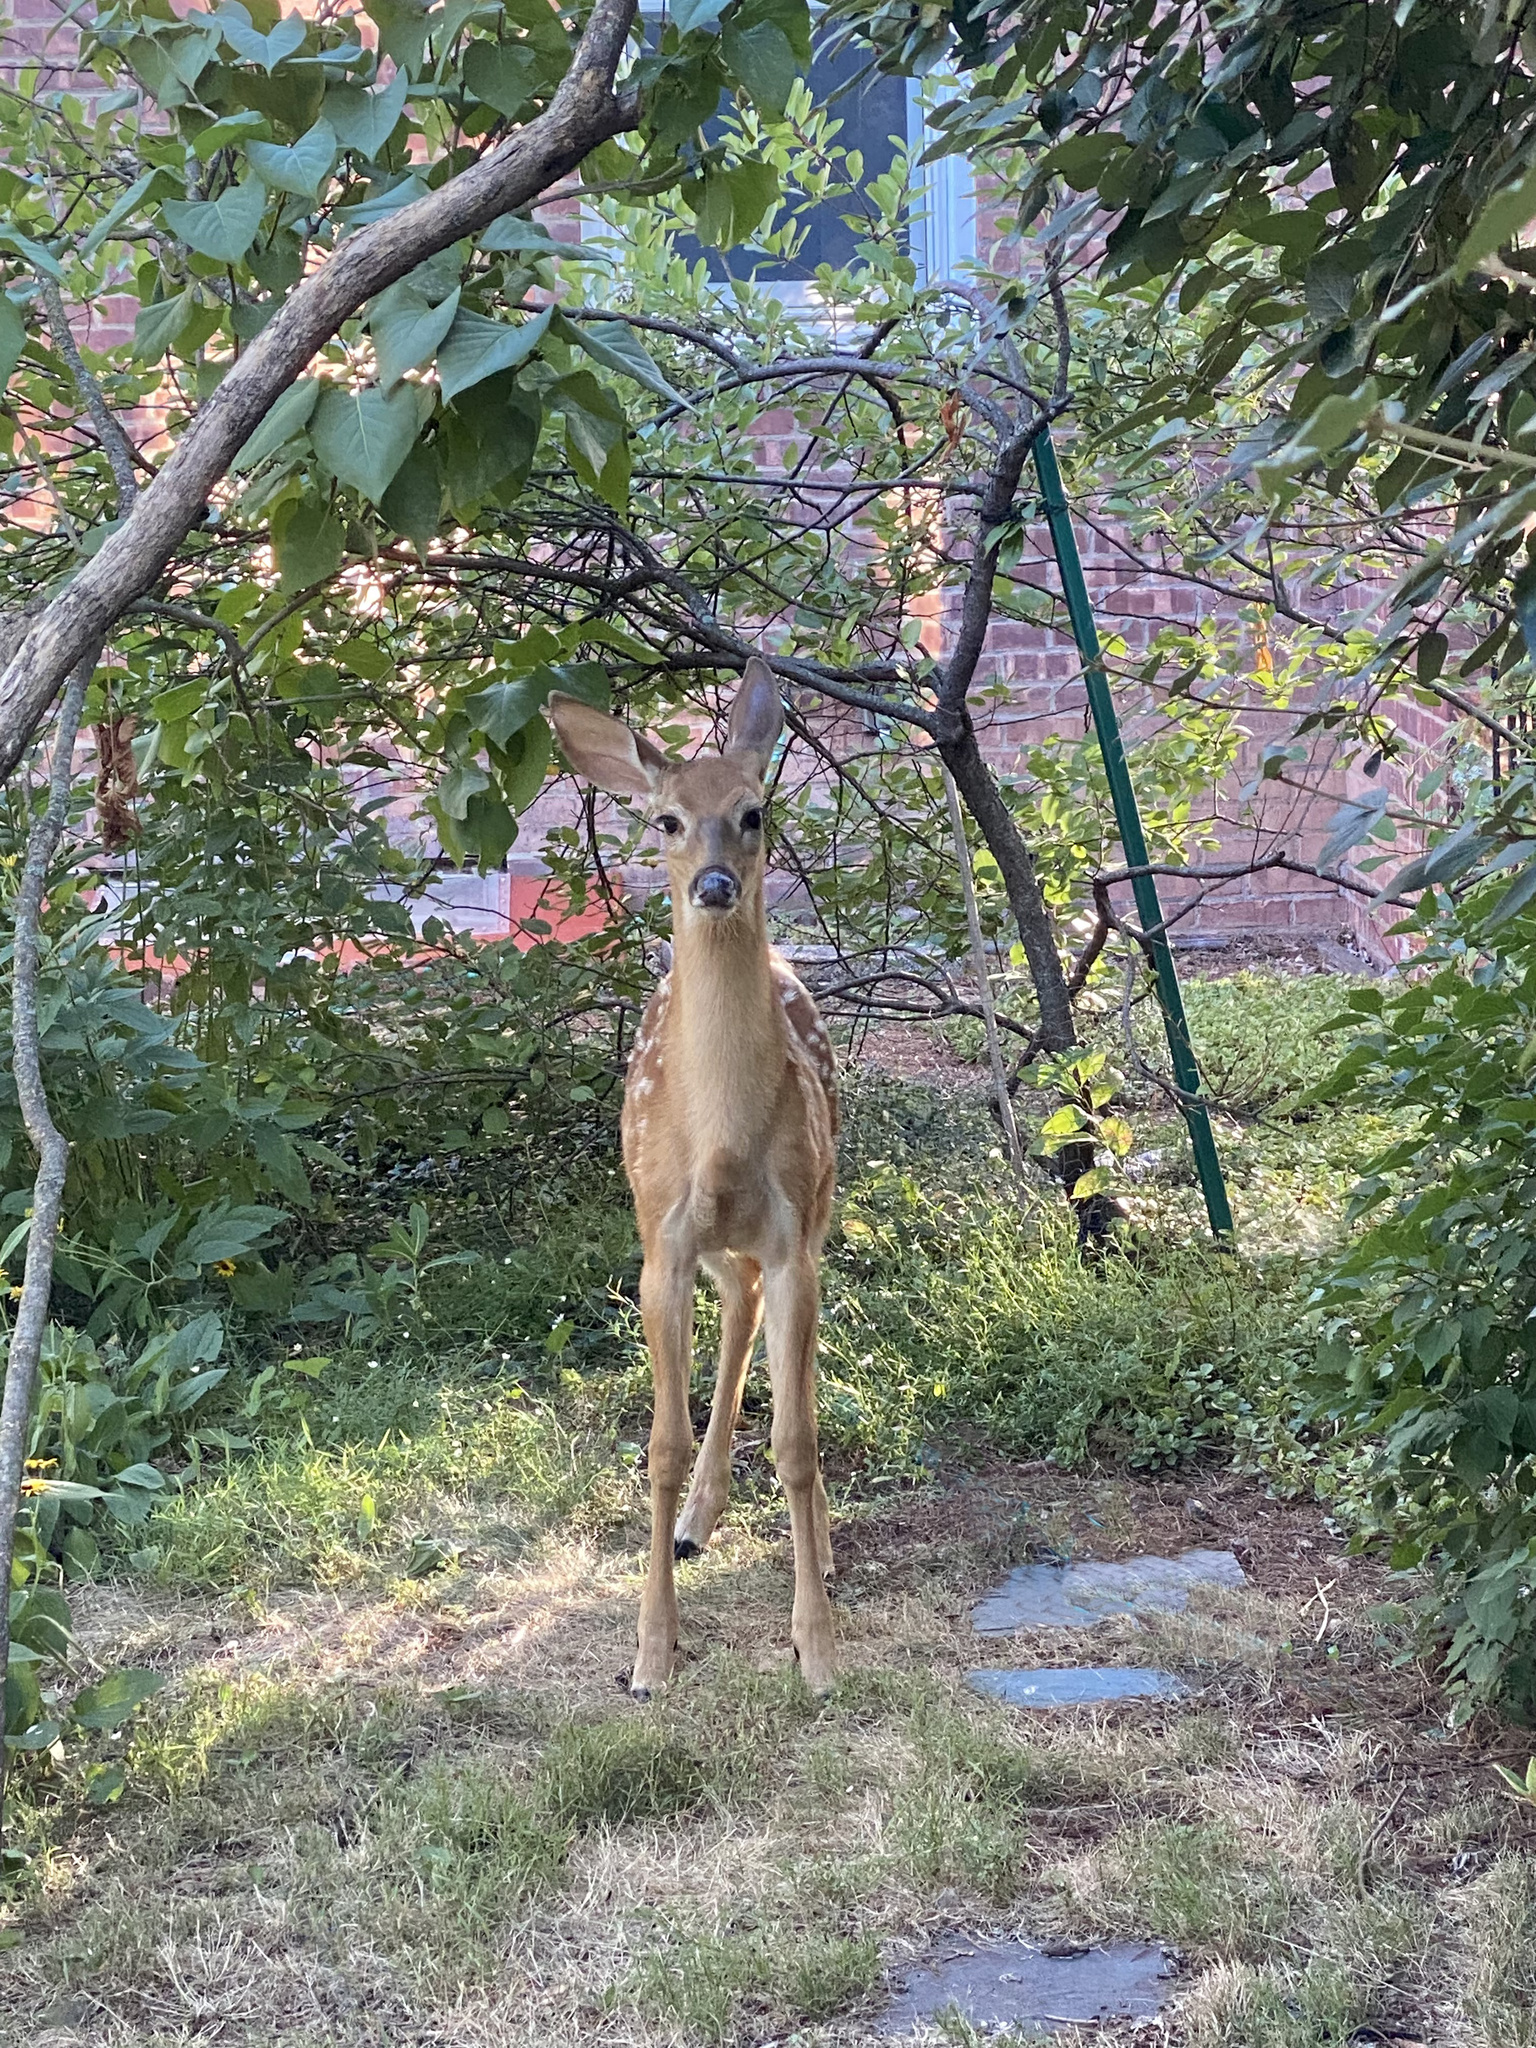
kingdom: Animalia
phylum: Chordata
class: Mammalia
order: Artiodactyla
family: Cervidae
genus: Odocoileus
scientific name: Odocoileus virginianus
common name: White-tailed deer
